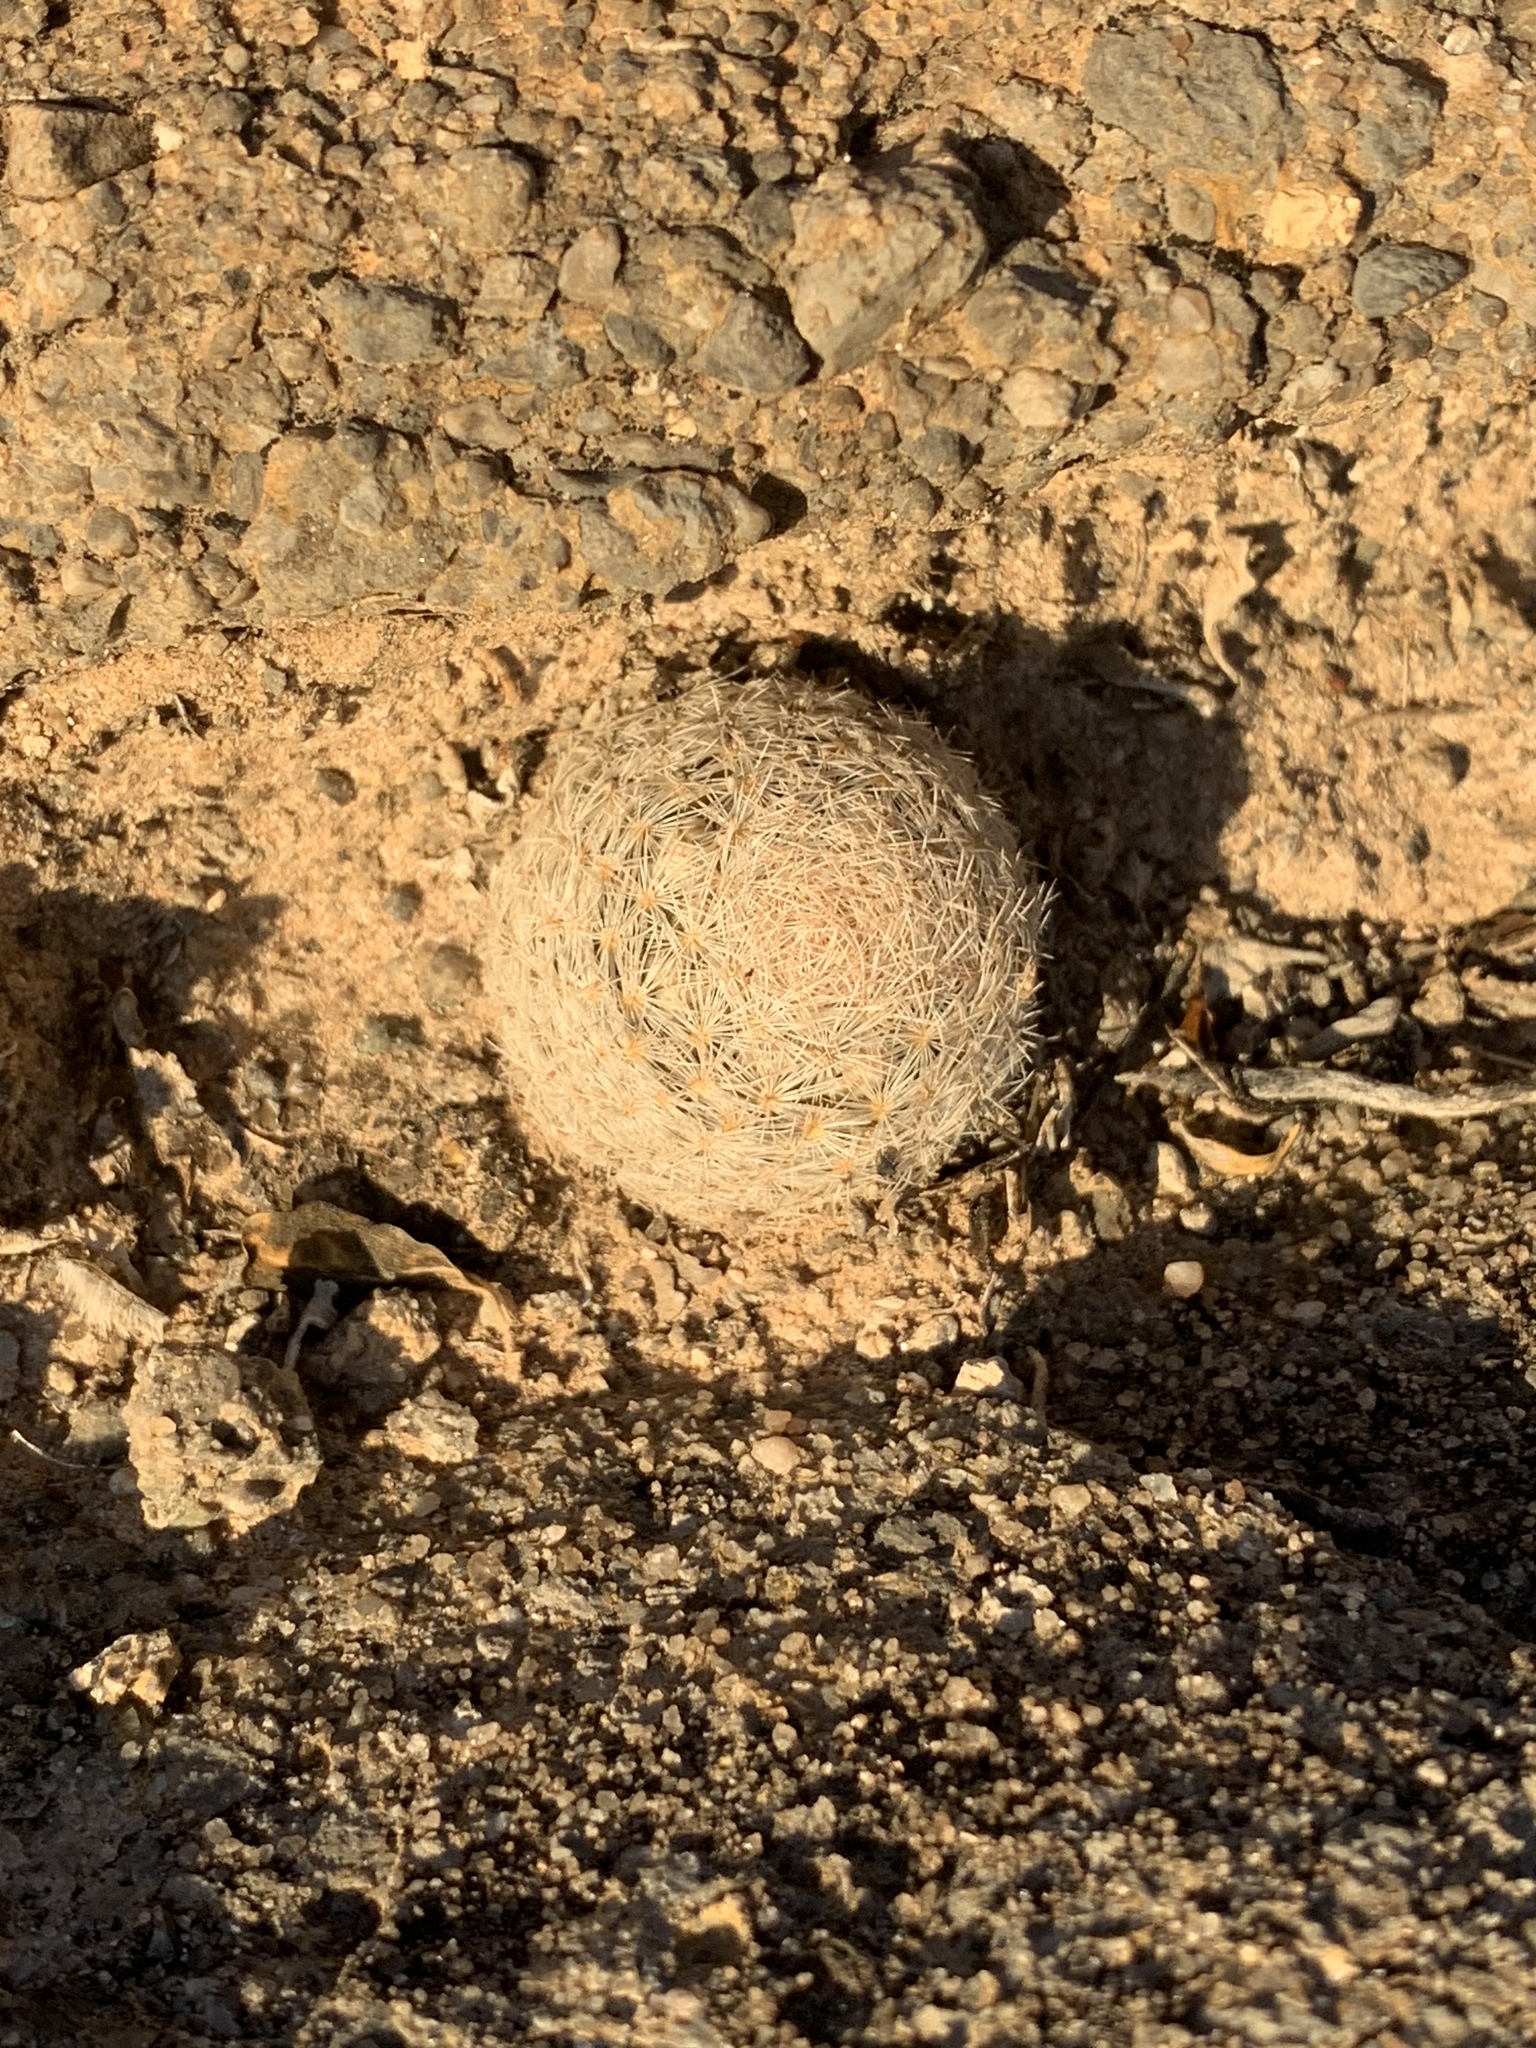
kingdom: Plantae
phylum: Tracheophyta
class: Magnoliopsida
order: Caryophyllales
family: Cactaceae
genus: Mammillaria
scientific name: Mammillaria lasiacantha
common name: Lace-spine nipple cactus
